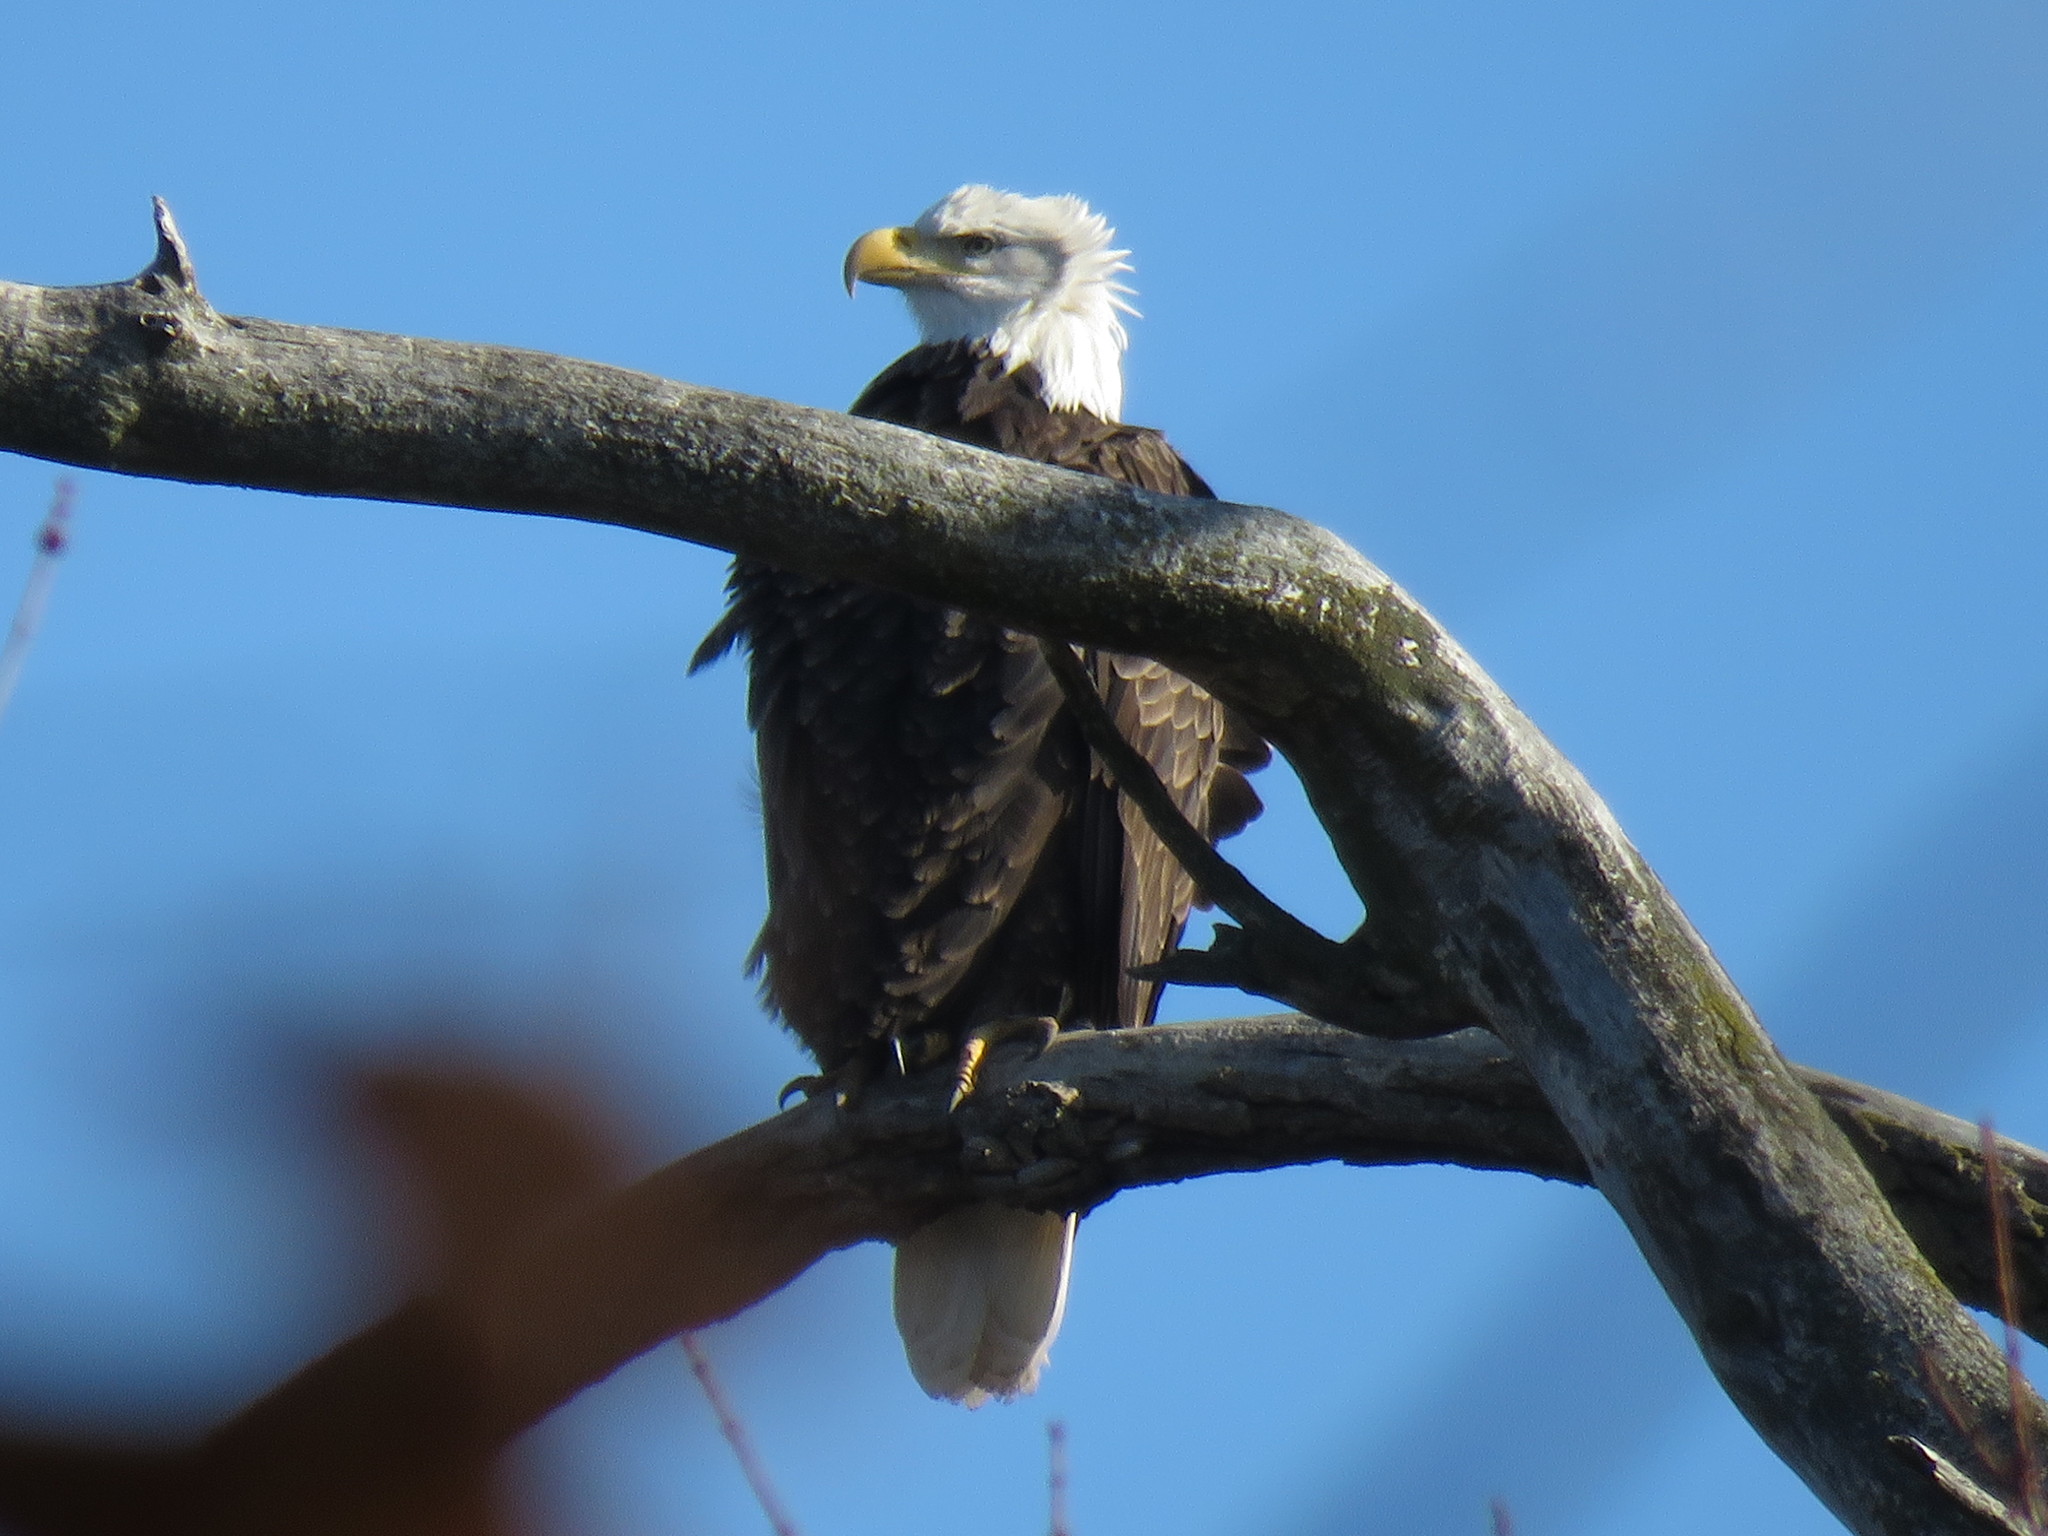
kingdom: Animalia
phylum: Chordata
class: Aves
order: Accipitriformes
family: Accipitridae
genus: Haliaeetus
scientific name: Haliaeetus leucocephalus
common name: Bald eagle
